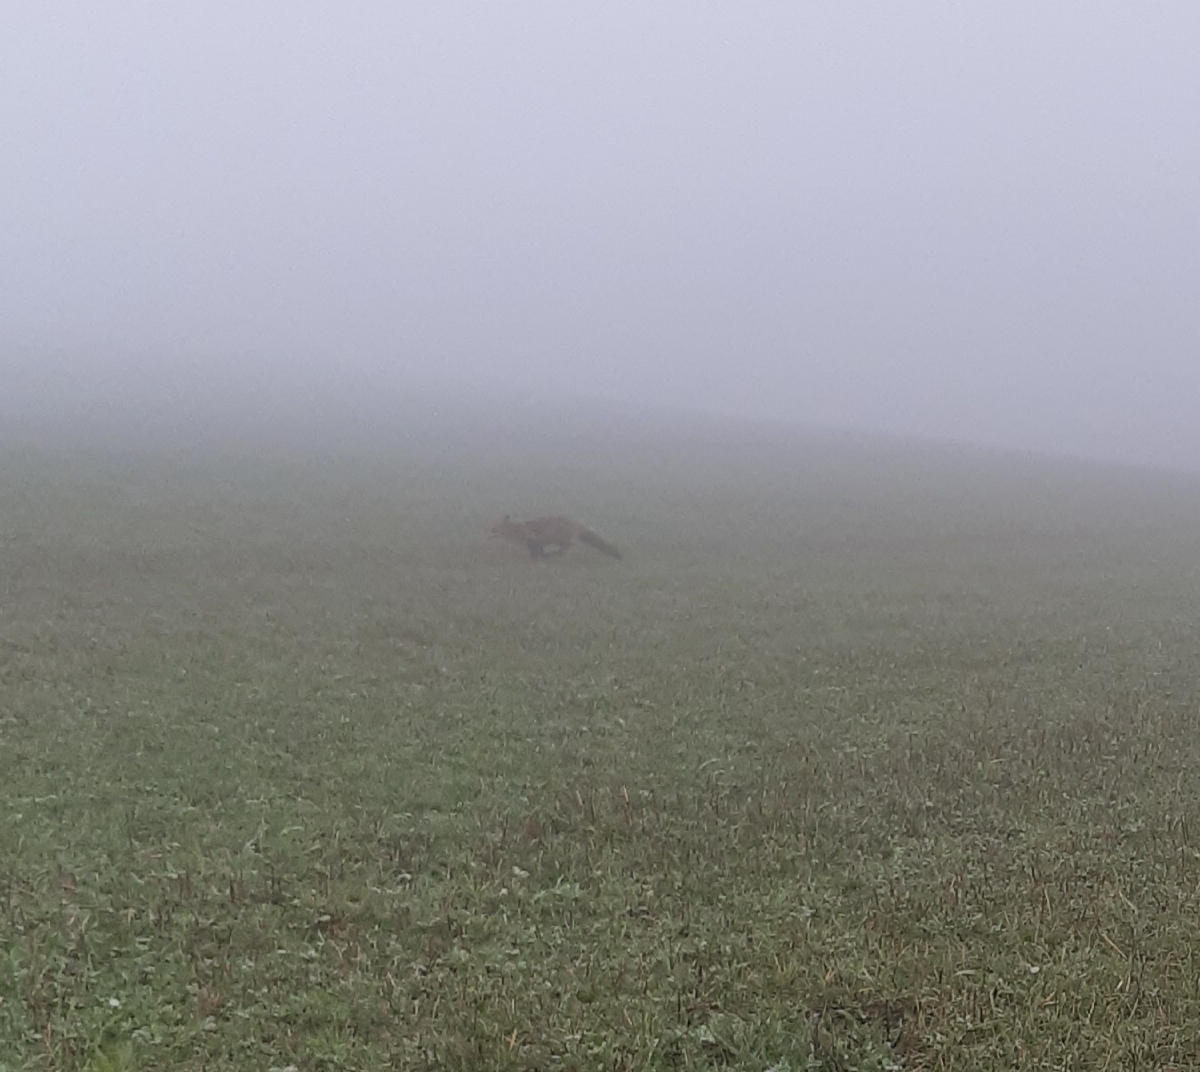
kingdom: Animalia
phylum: Chordata
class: Mammalia
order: Carnivora
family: Canidae
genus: Vulpes
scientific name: Vulpes vulpes
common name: Red fox
